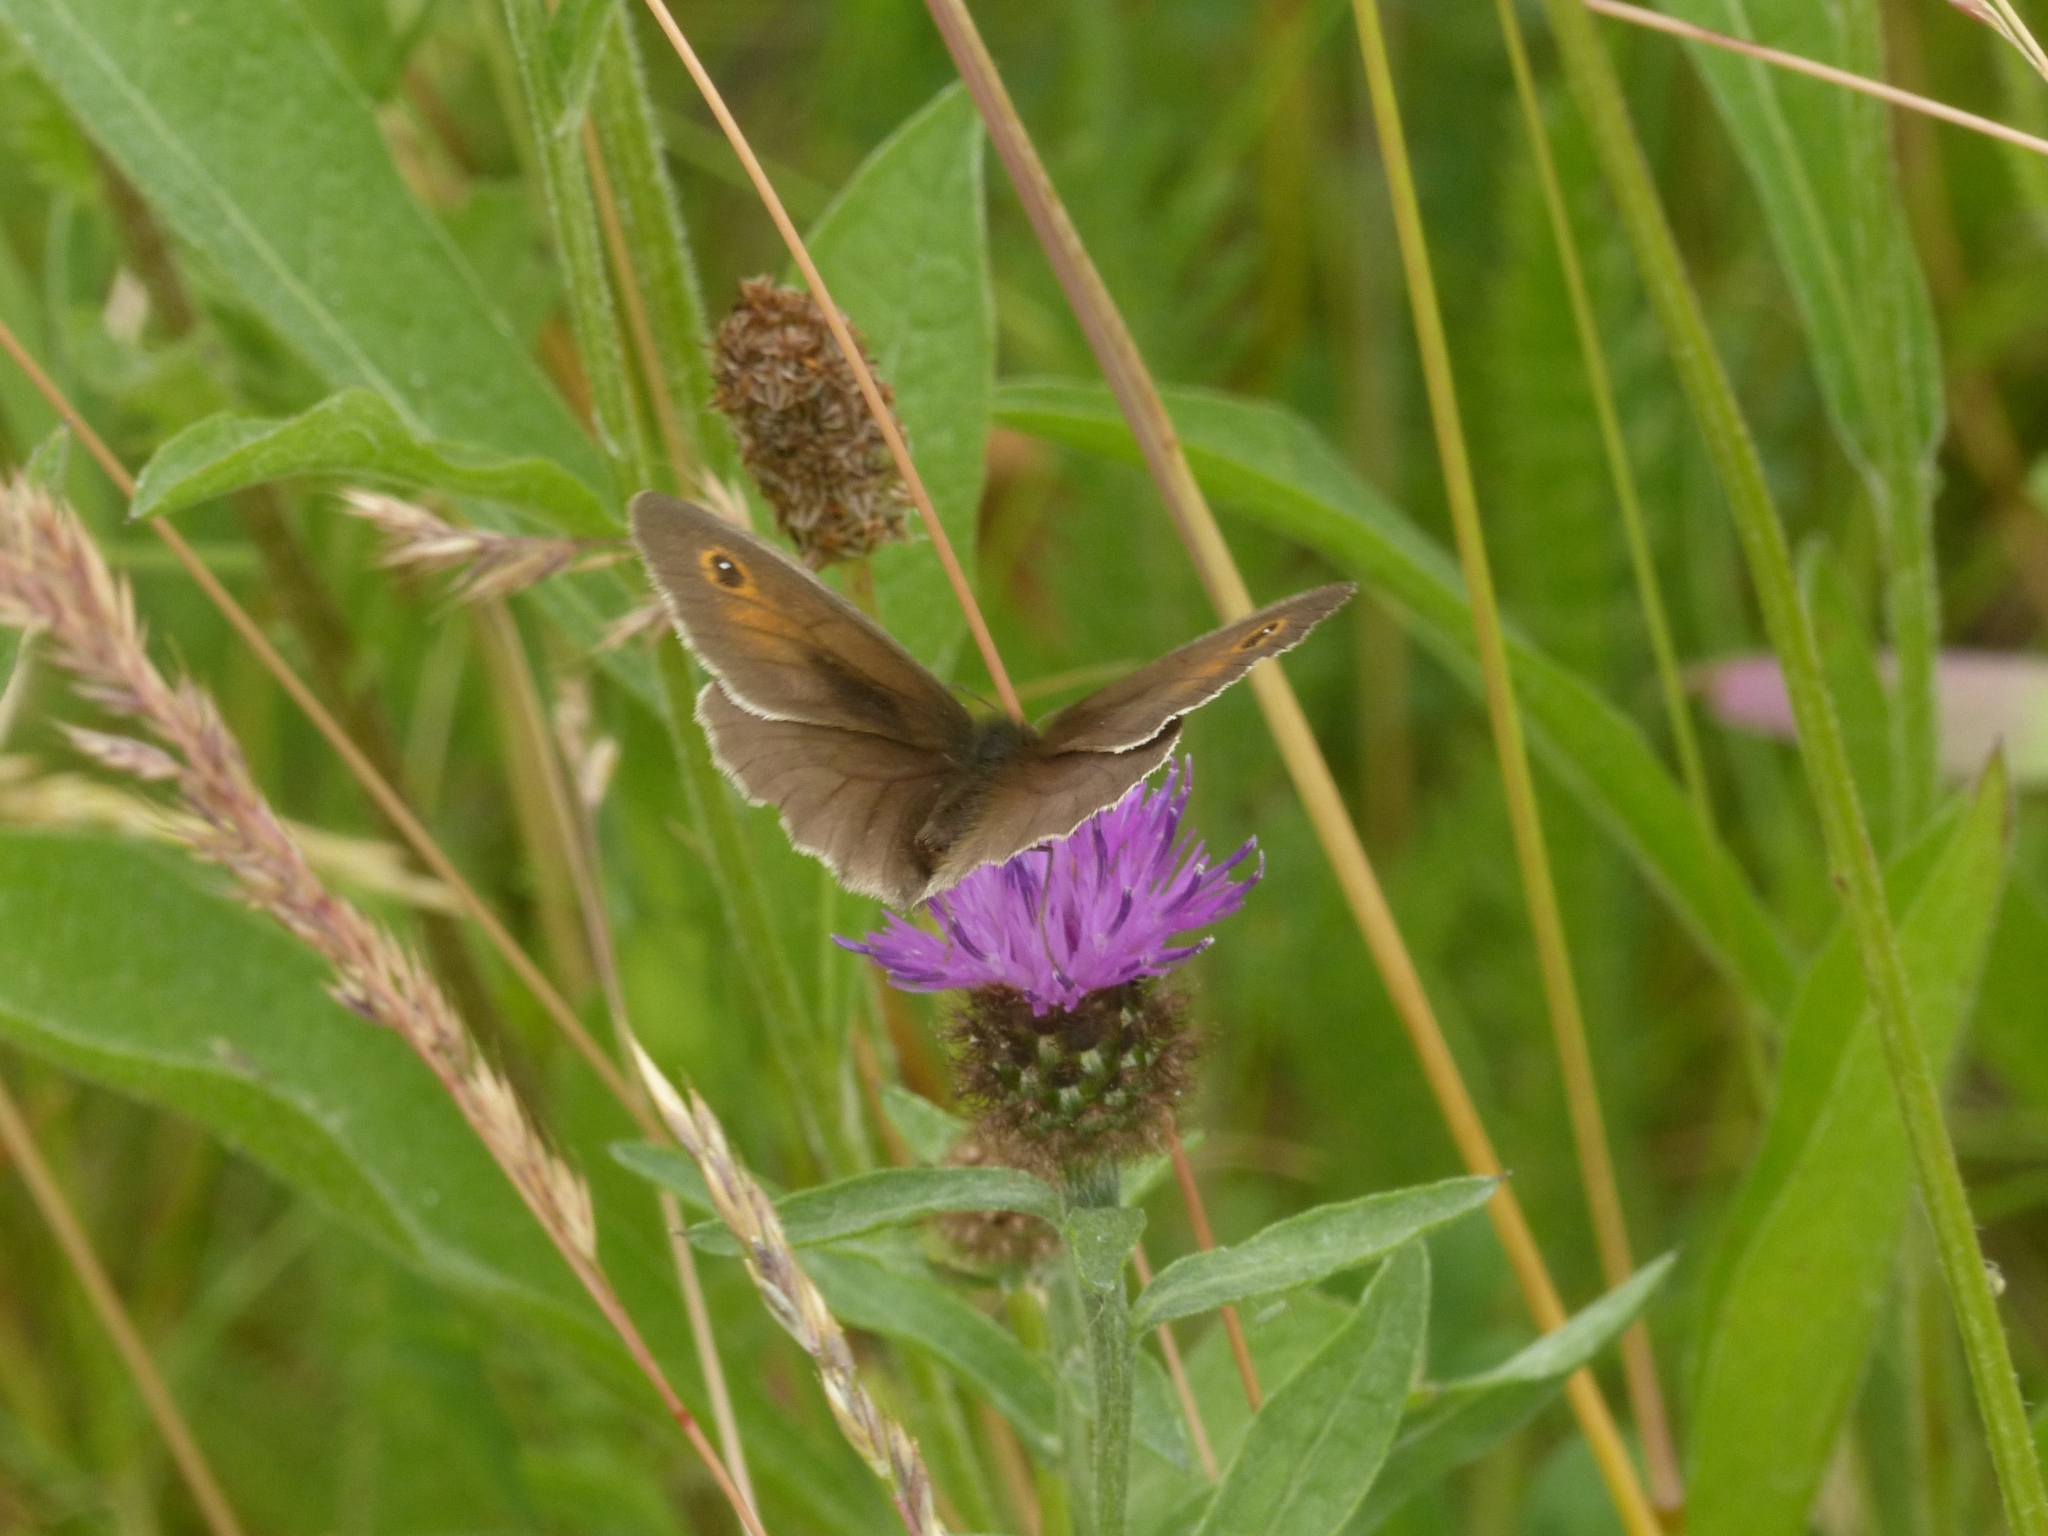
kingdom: Animalia
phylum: Arthropoda
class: Insecta
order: Lepidoptera
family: Nymphalidae
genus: Maniola
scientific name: Maniola jurtina
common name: Meadow brown
